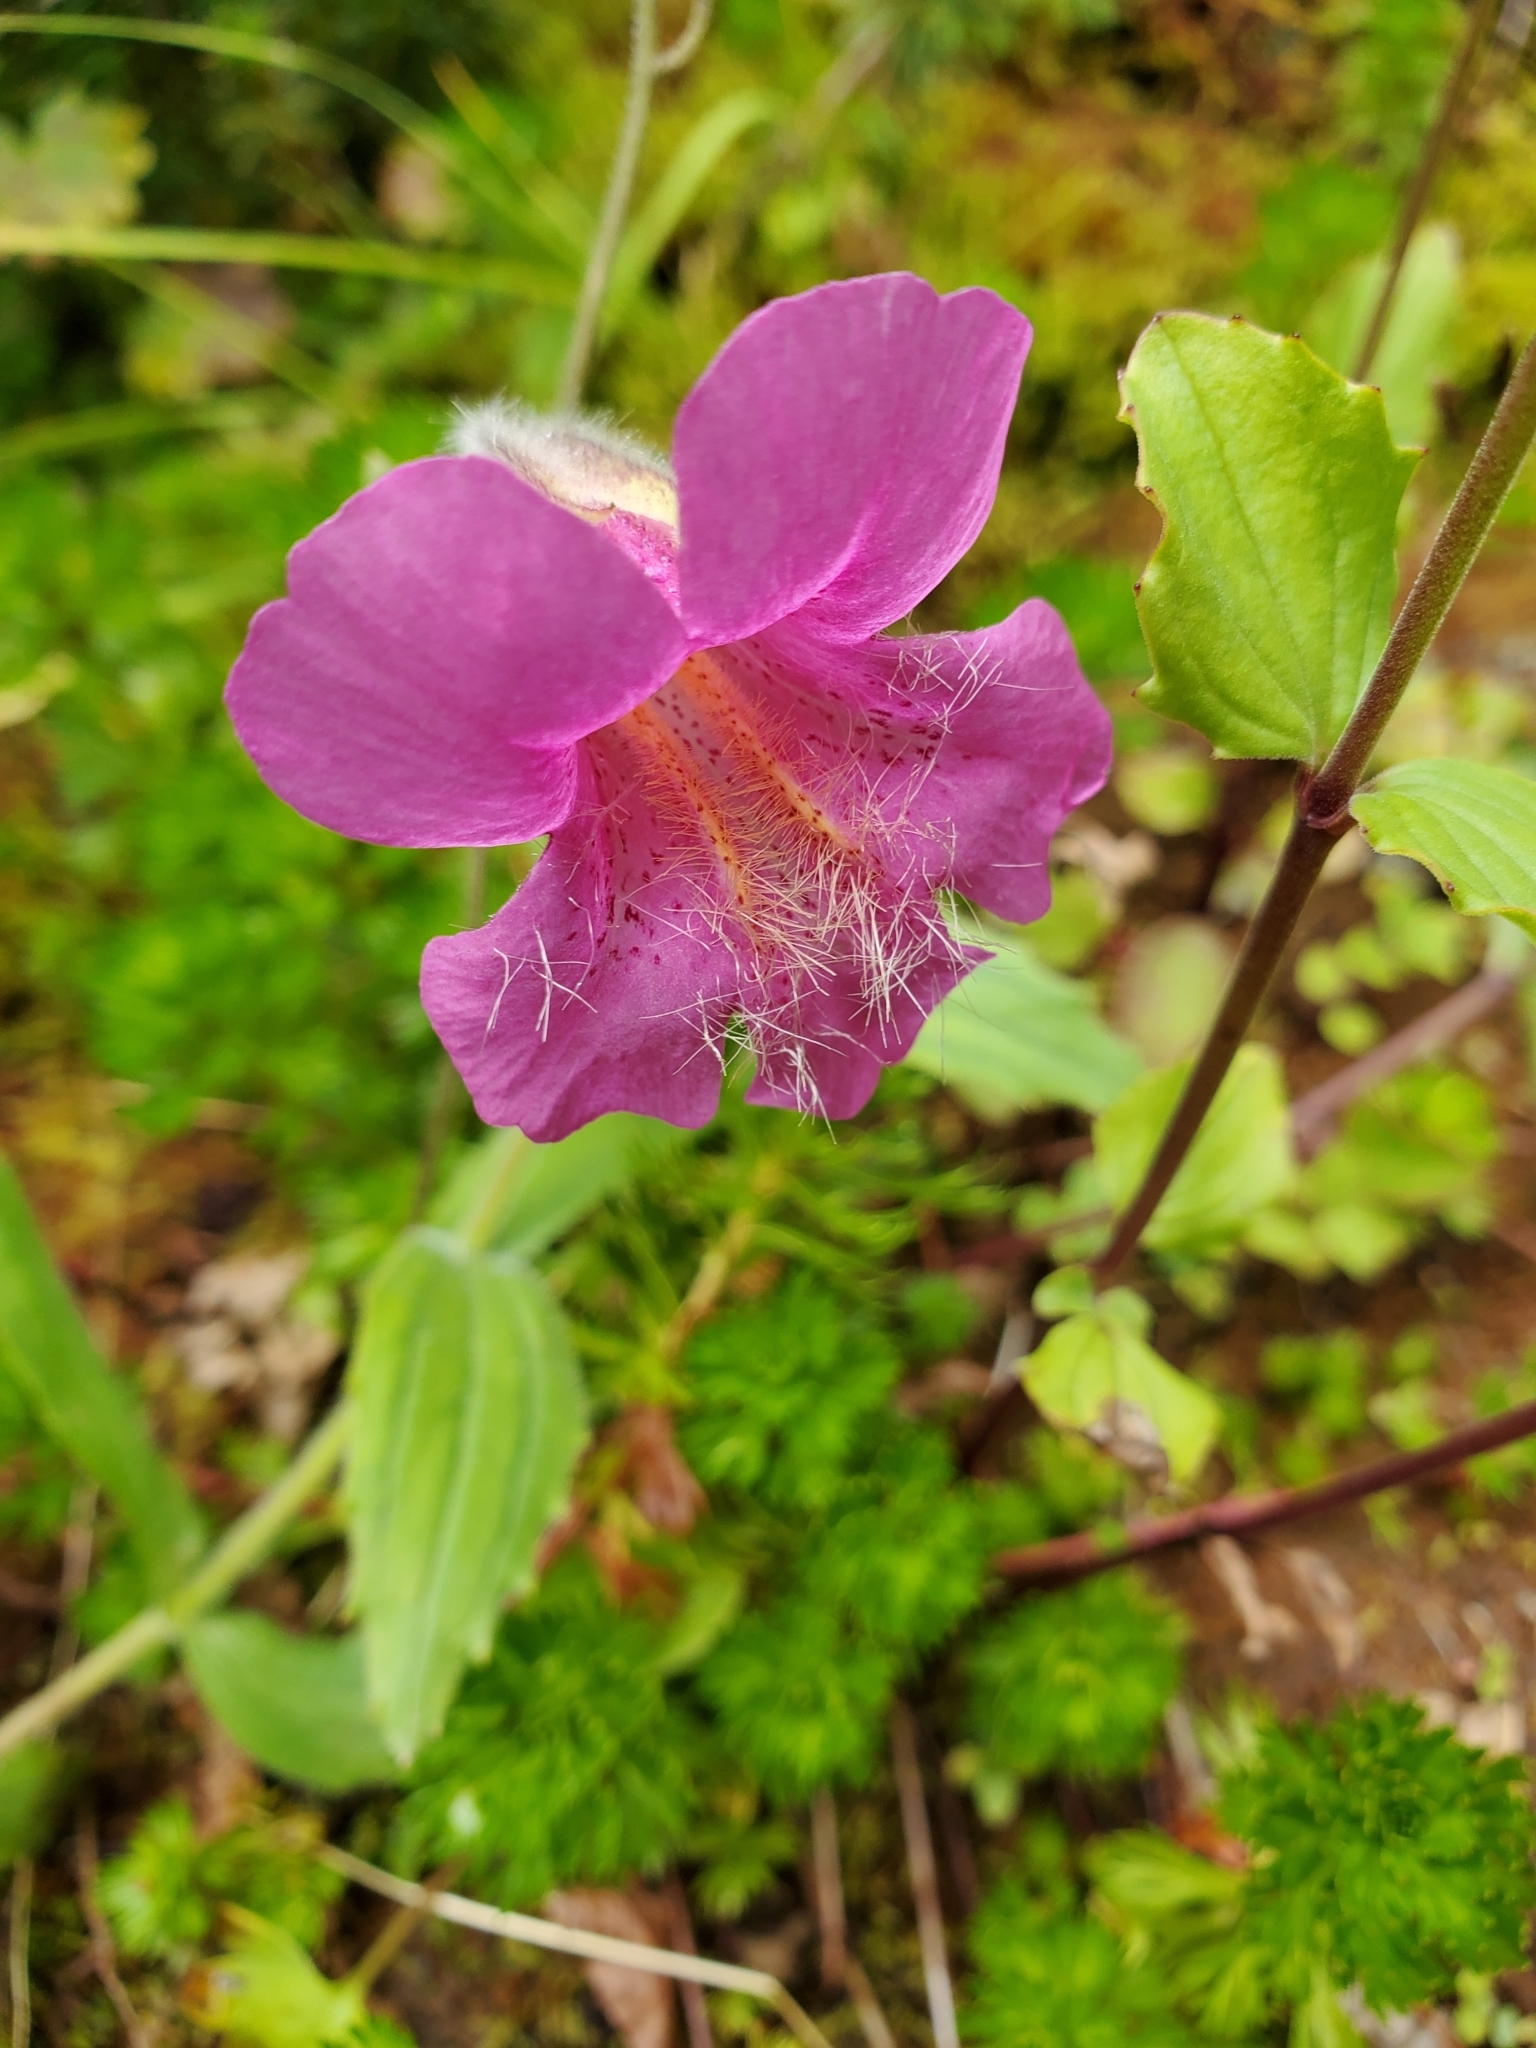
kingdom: Plantae
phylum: Tracheophyta
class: Magnoliopsida
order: Lamiales
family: Phrymaceae
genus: Erythranthe
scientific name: Erythranthe lewisii
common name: Lewis's monkey-flower
